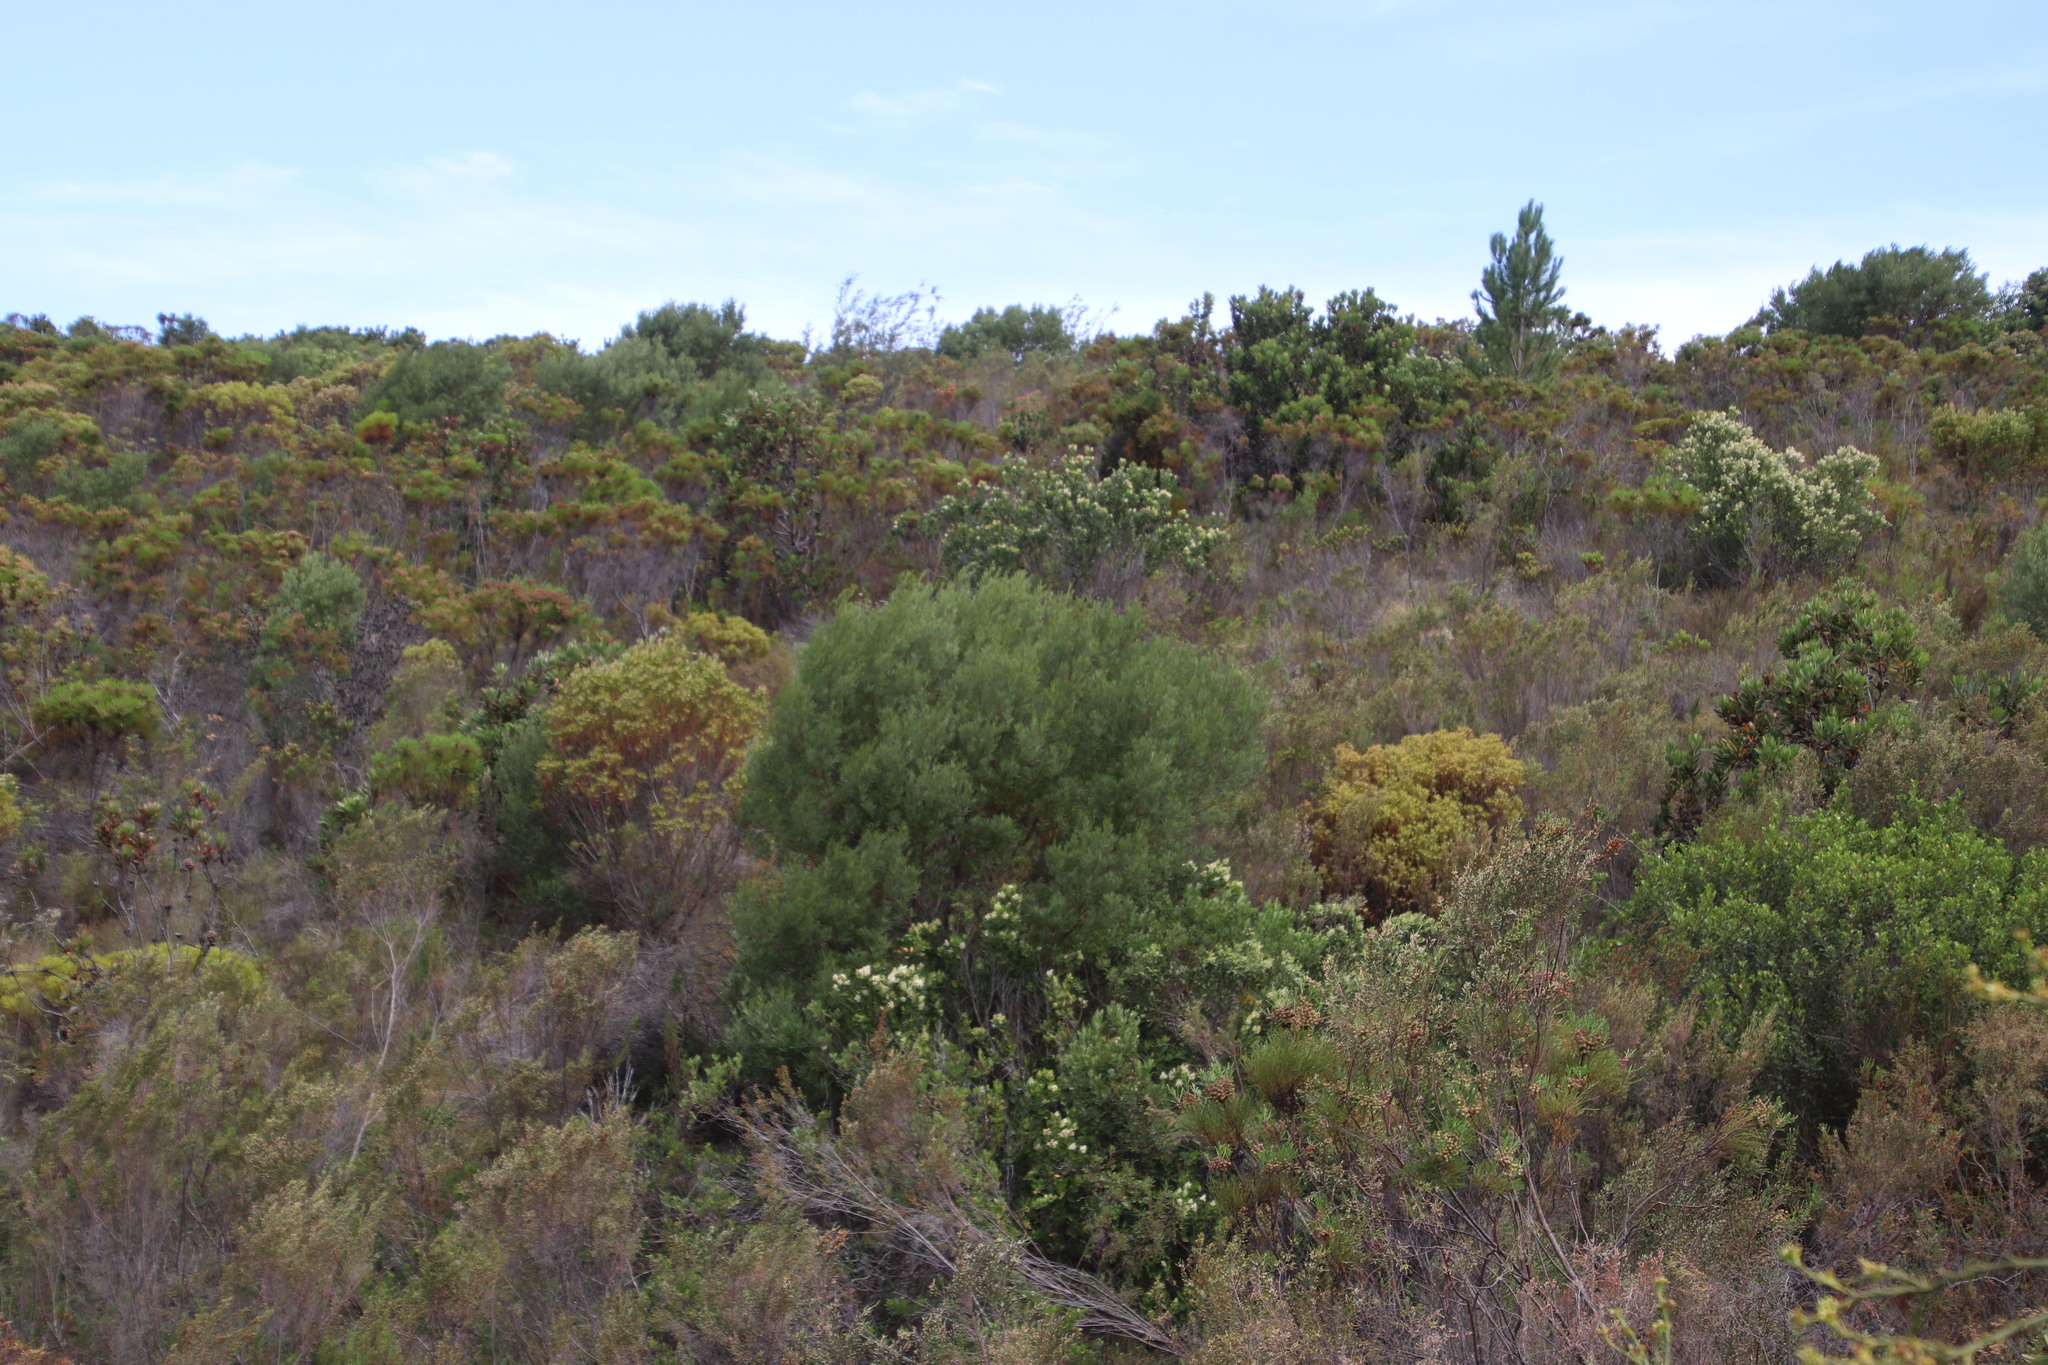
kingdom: Plantae
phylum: Tracheophyta
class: Magnoliopsida
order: Fabales
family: Fabaceae
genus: Acacia
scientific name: Acacia cyclops
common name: Coastal wattle
